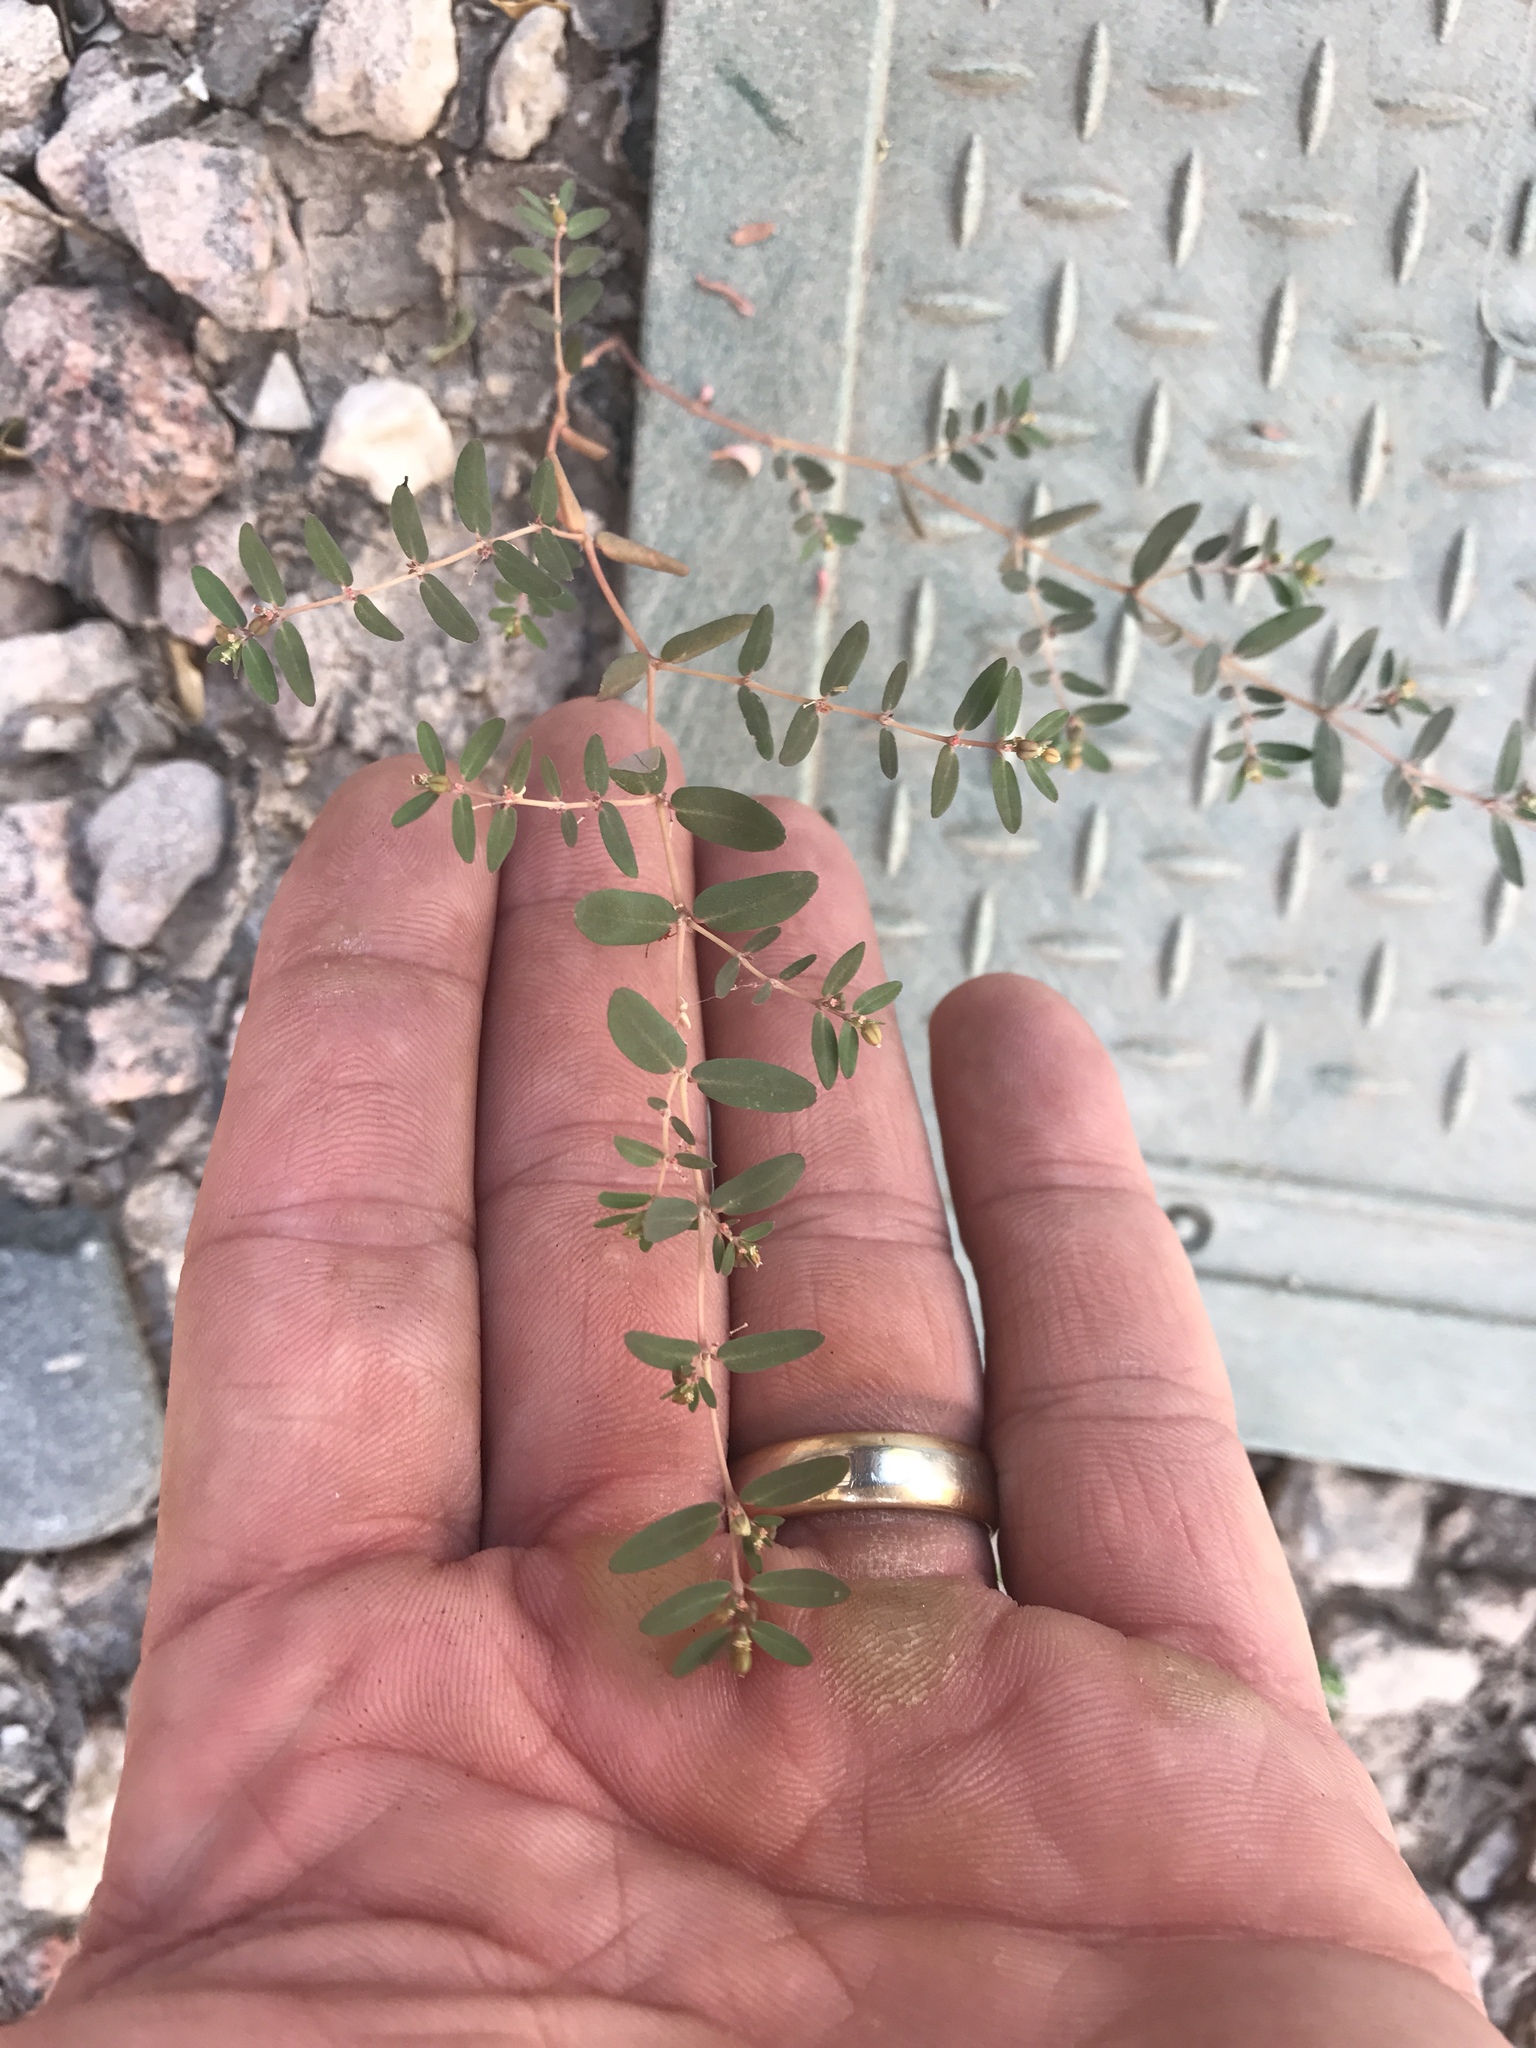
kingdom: Plantae
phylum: Tracheophyta
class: Magnoliopsida
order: Malpighiales
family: Euphorbiaceae
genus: Euphorbia
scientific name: Euphorbia abramsiana
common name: Abram's spurge
